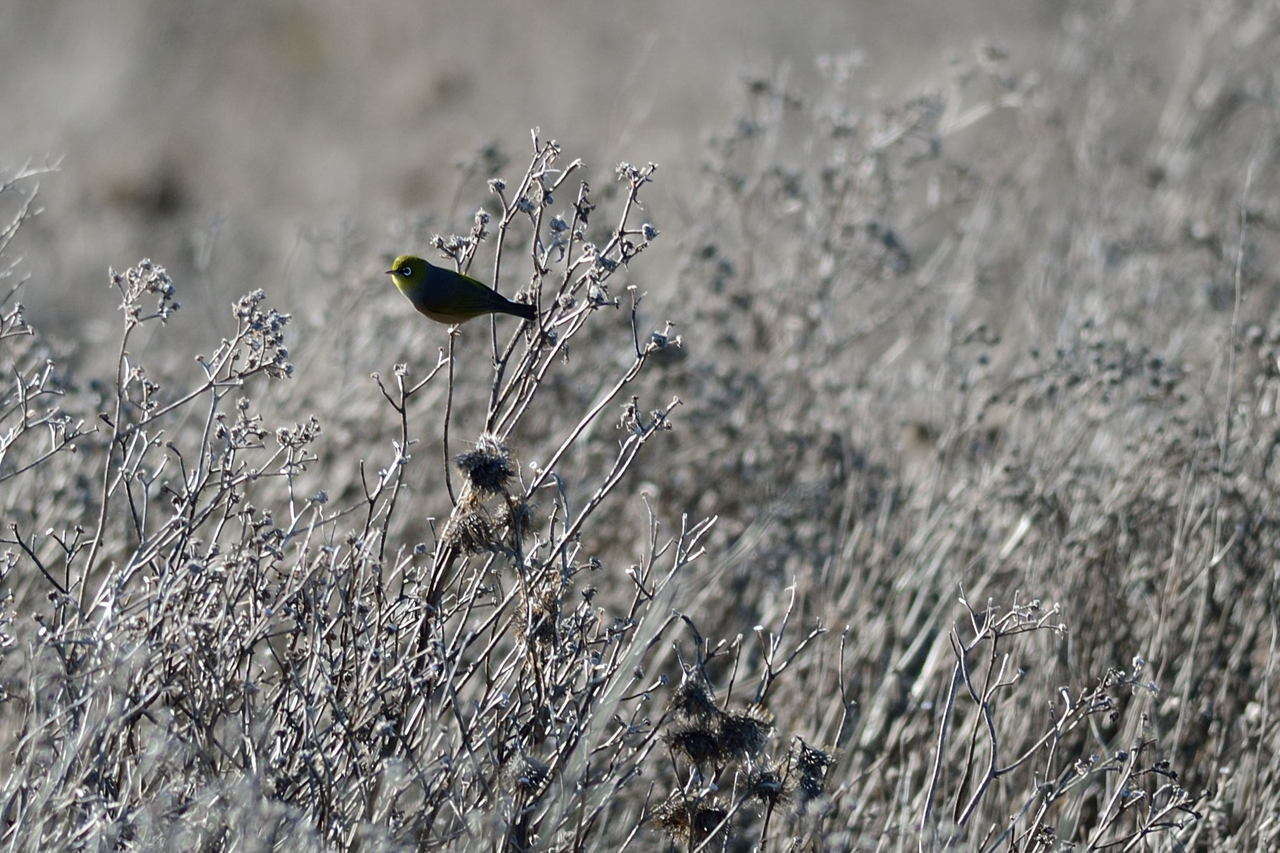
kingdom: Animalia
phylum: Chordata
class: Aves
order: Passeriformes
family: Zosteropidae
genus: Zosterops
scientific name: Zosterops lateralis
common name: Silvereye
